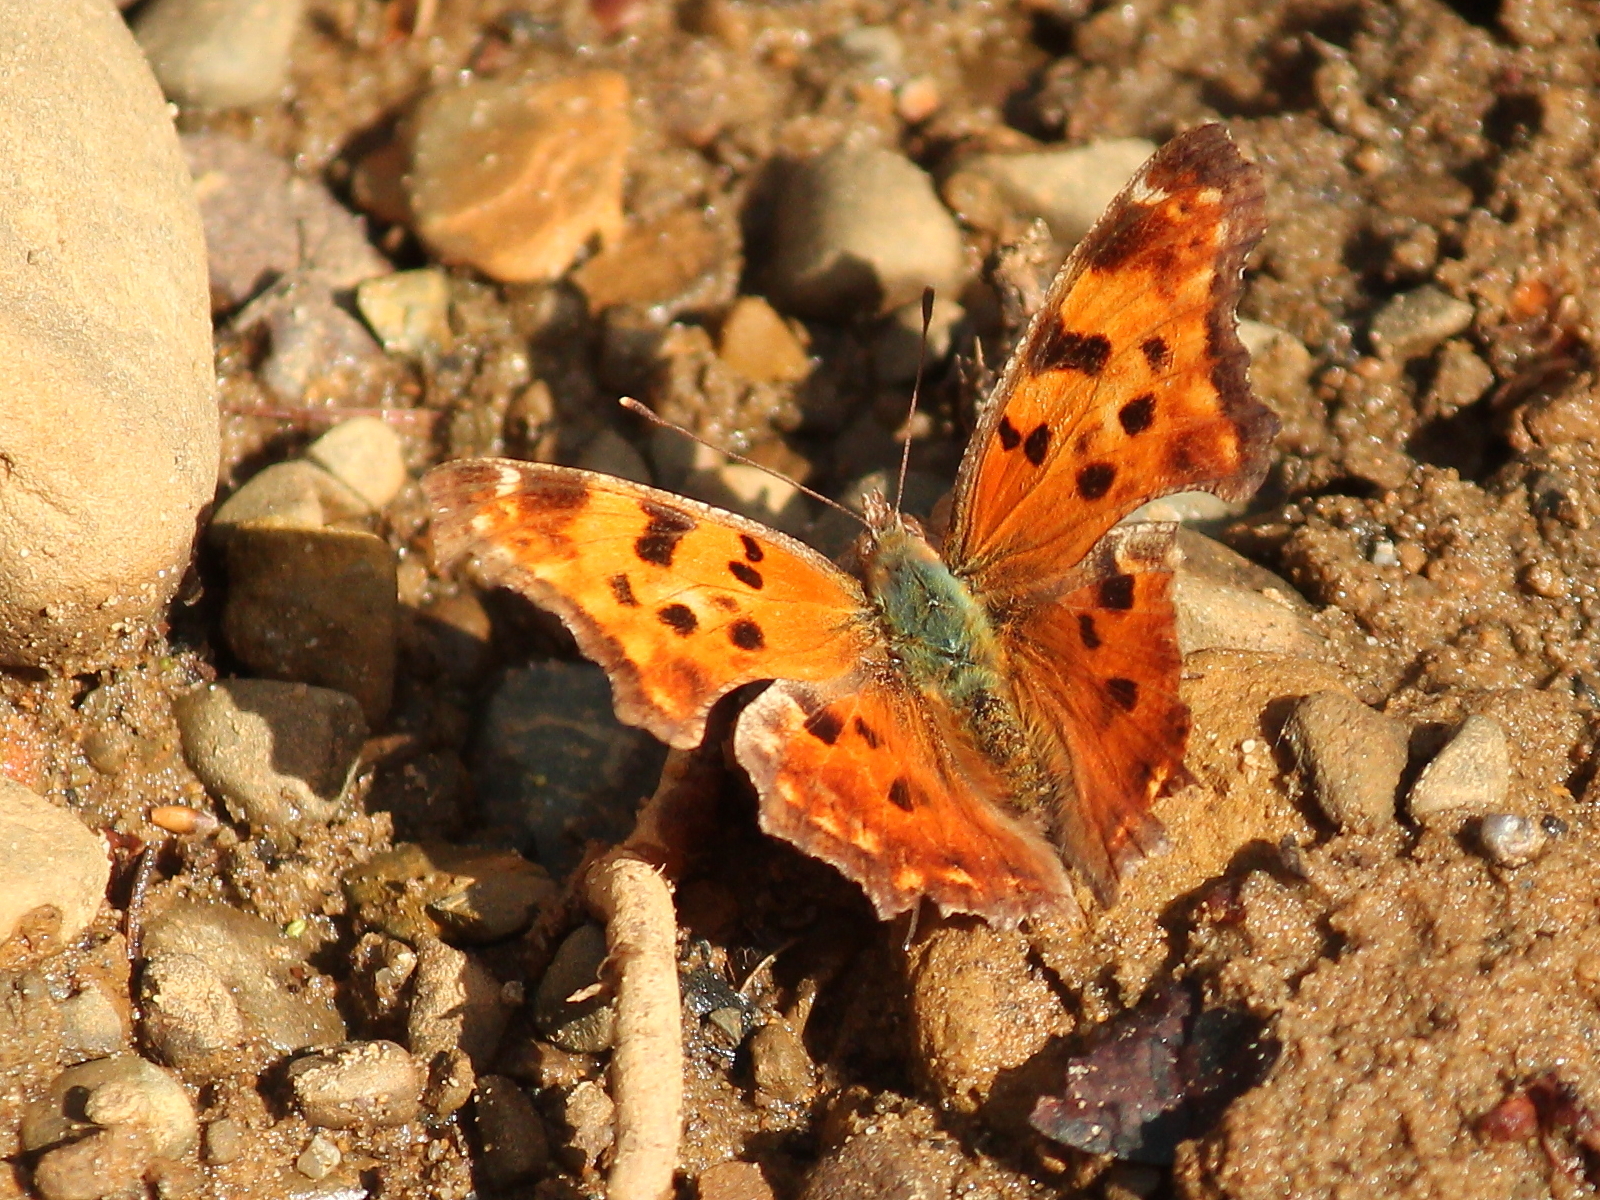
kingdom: Animalia
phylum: Arthropoda
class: Insecta
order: Lepidoptera
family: Nymphalidae
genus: Polygonia
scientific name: Polygonia comma
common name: Eastern comma
